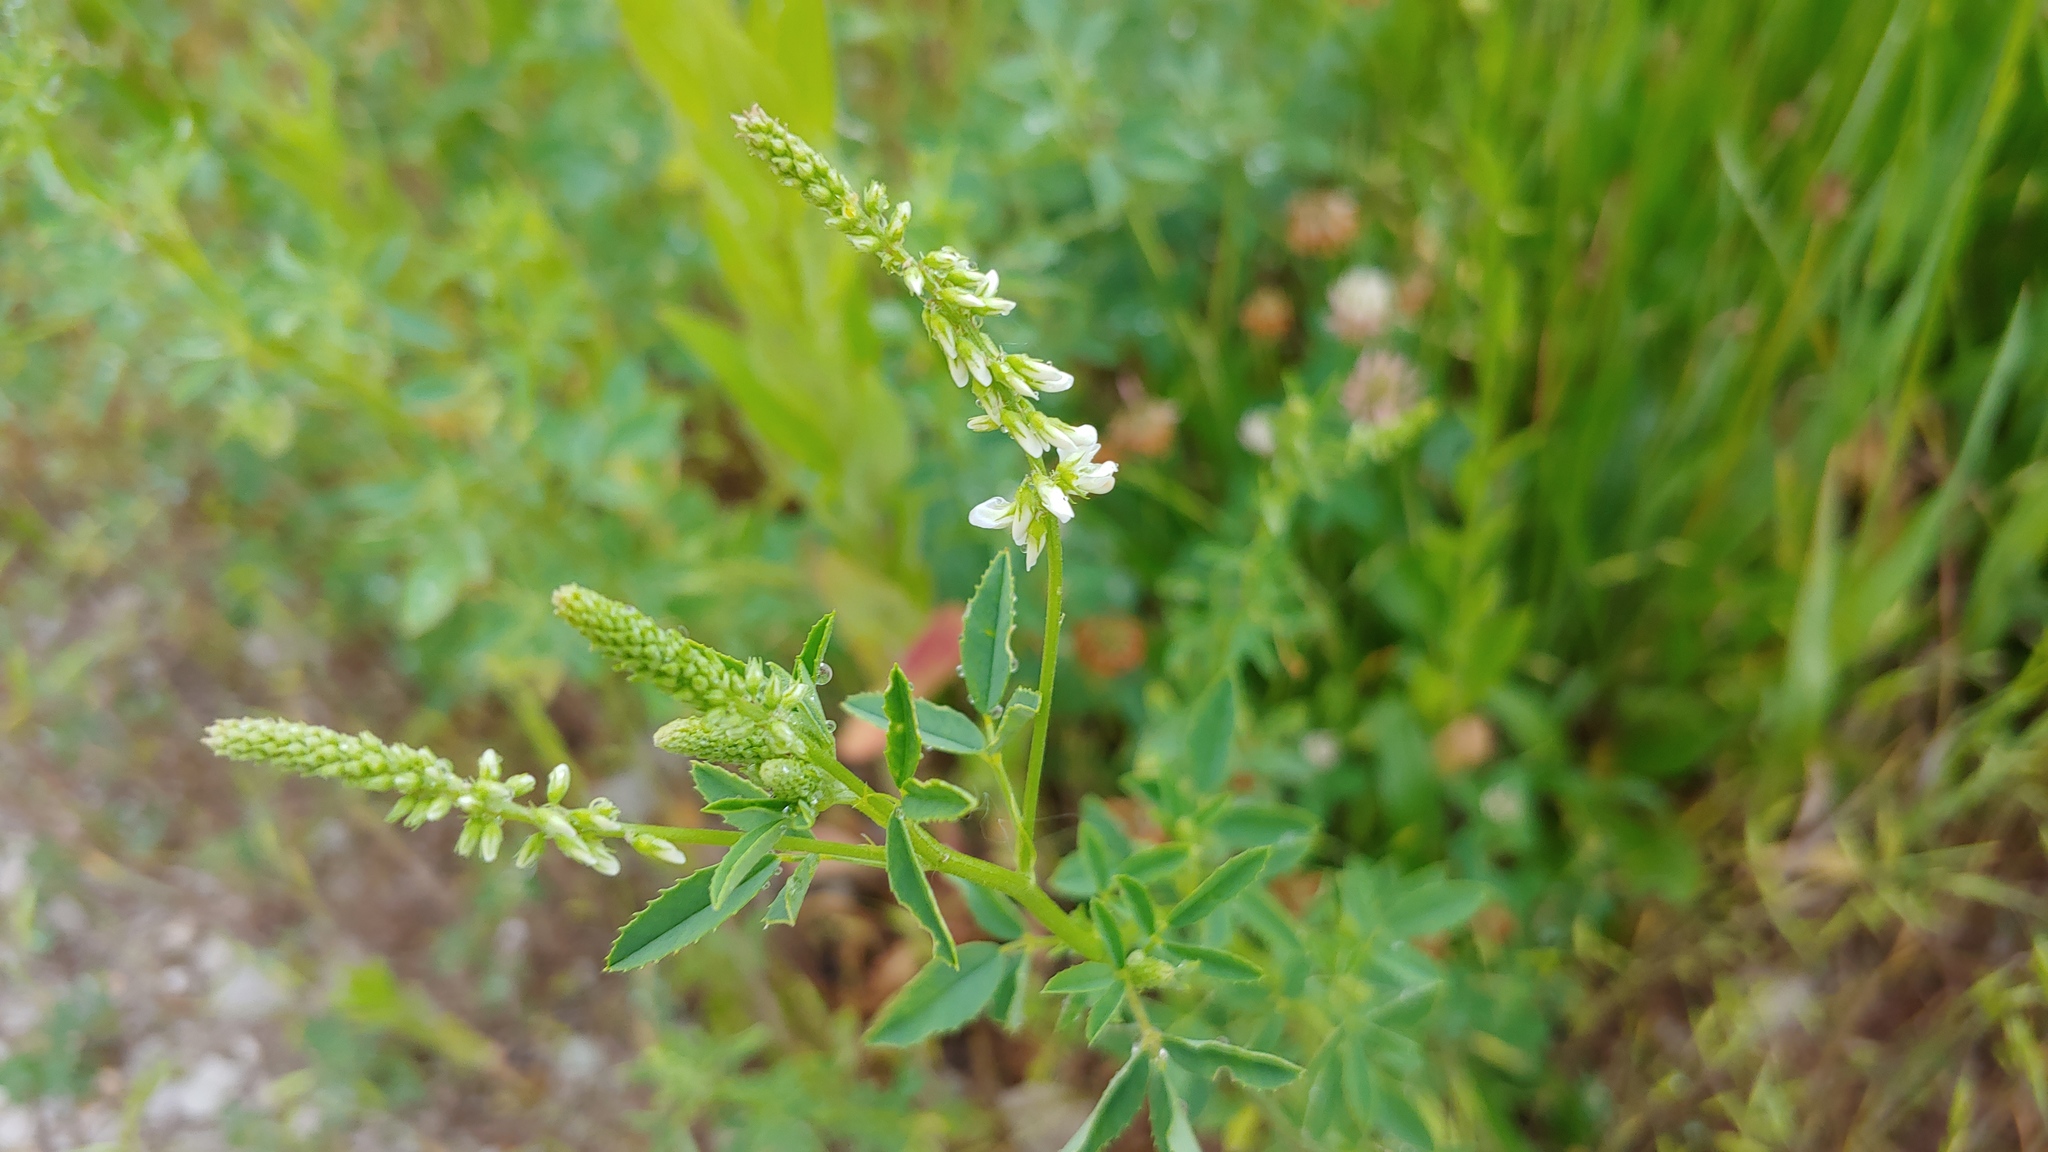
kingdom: Plantae
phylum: Tracheophyta
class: Magnoliopsida
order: Fabales
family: Fabaceae
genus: Melilotus
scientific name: Melilotus albus
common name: White melilot
